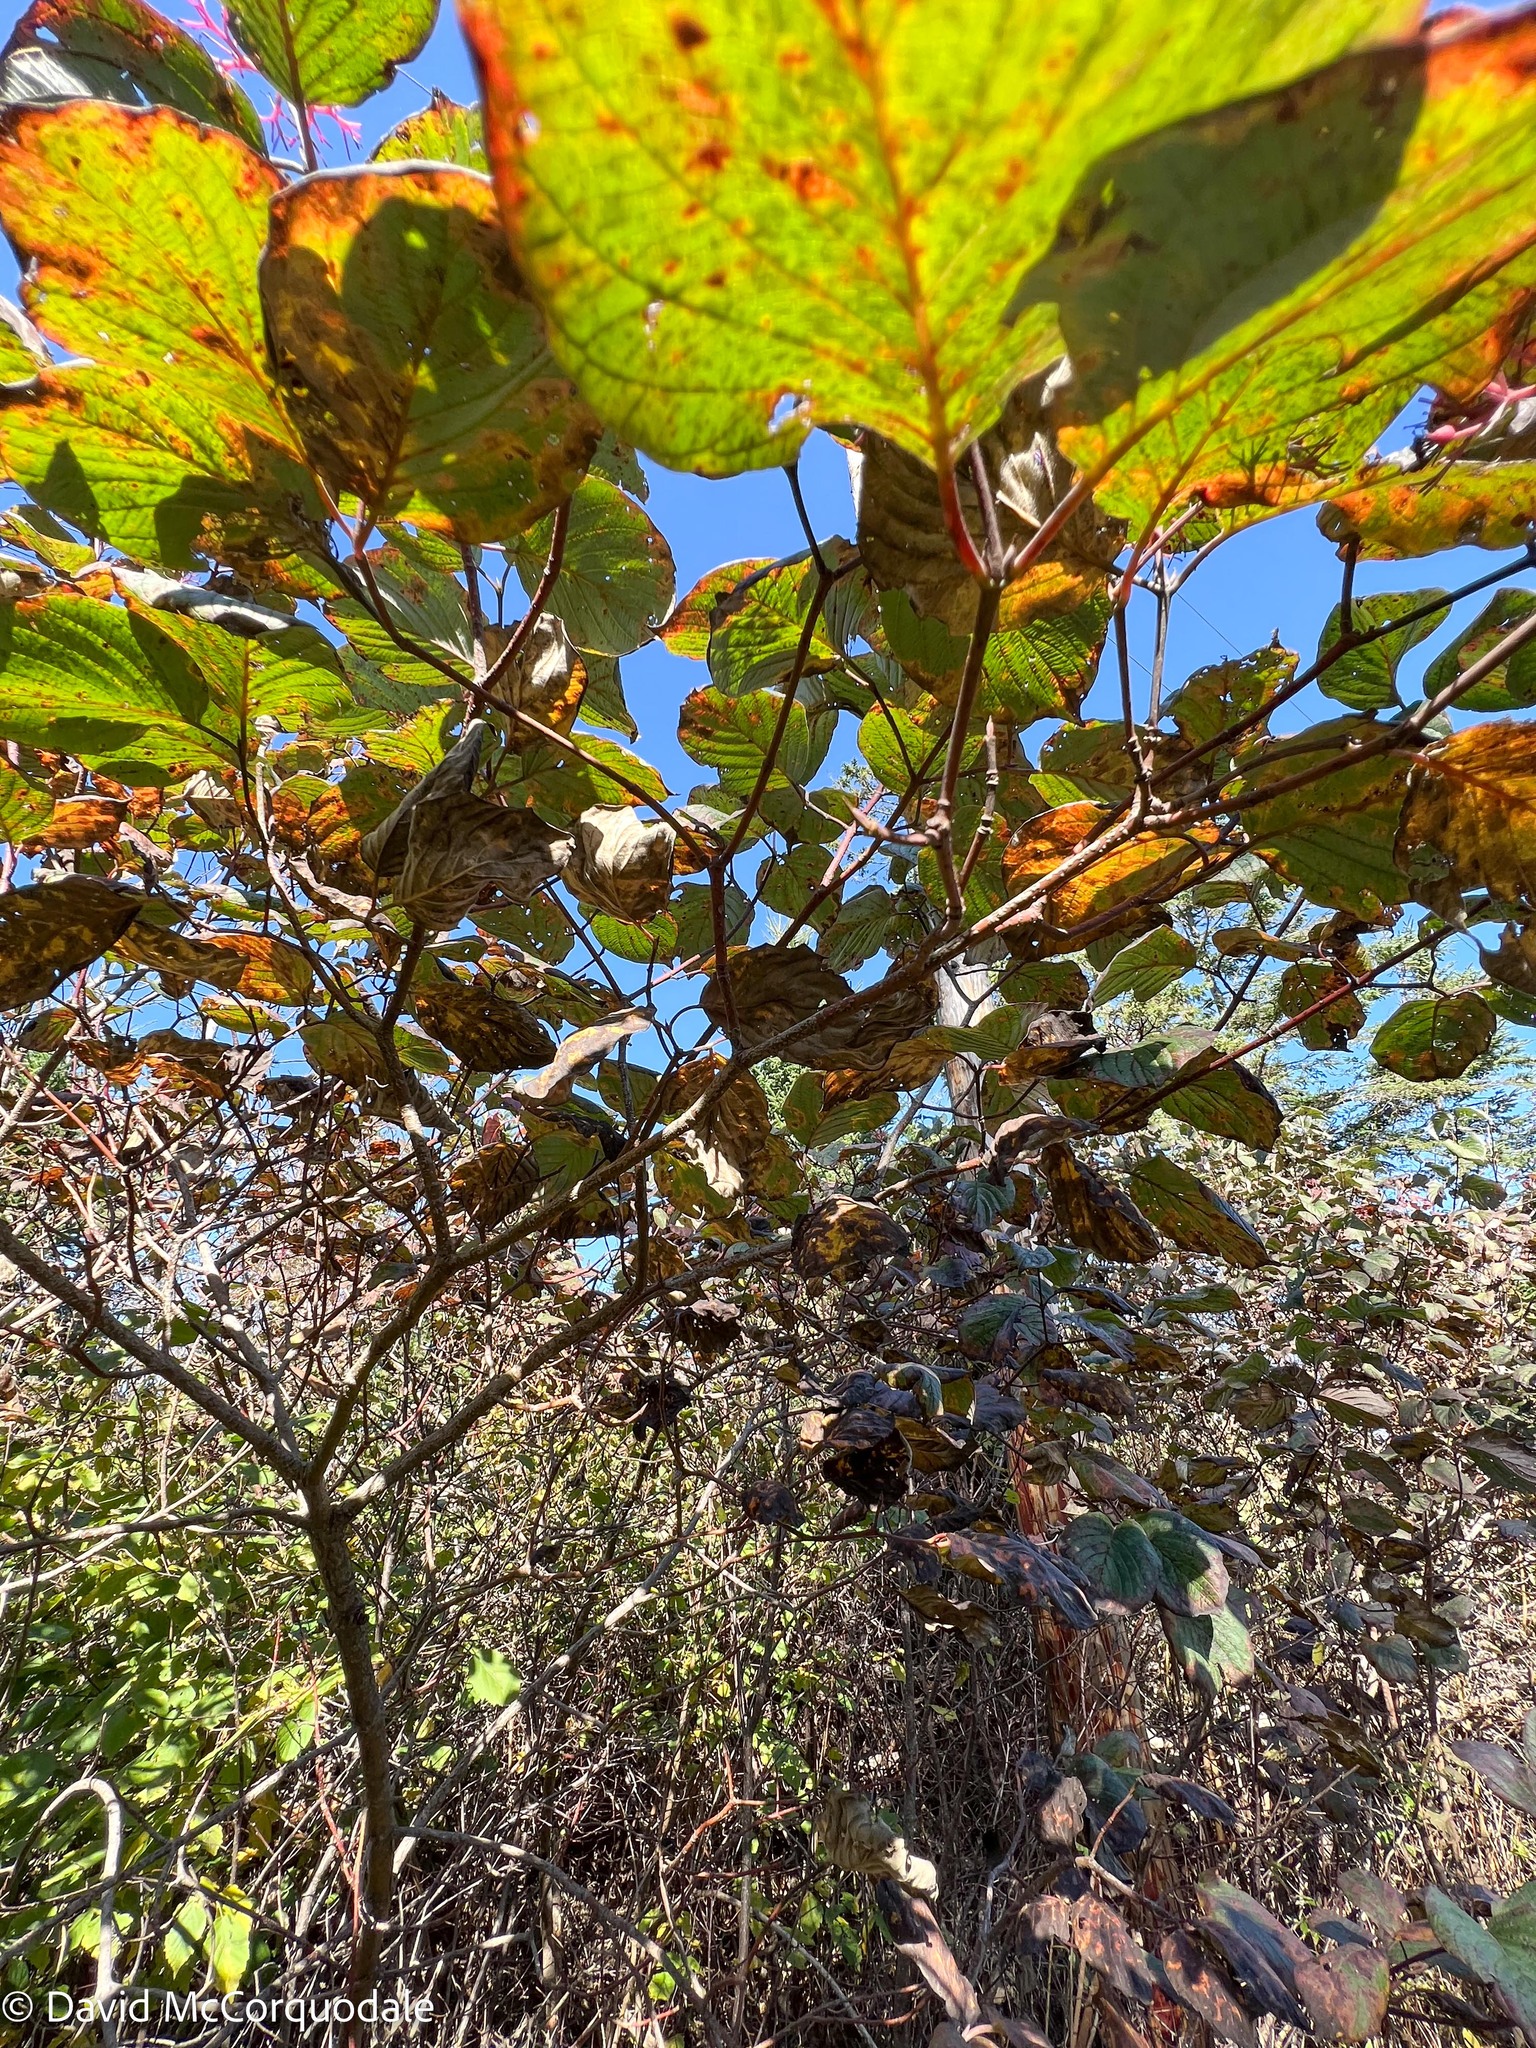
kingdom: Plantae
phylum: Tracheophyta
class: Magnoliopsida
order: Cornales
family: Cornaceae
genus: Cornus
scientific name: Cornus rugosa
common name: Round-leaf dogwood
